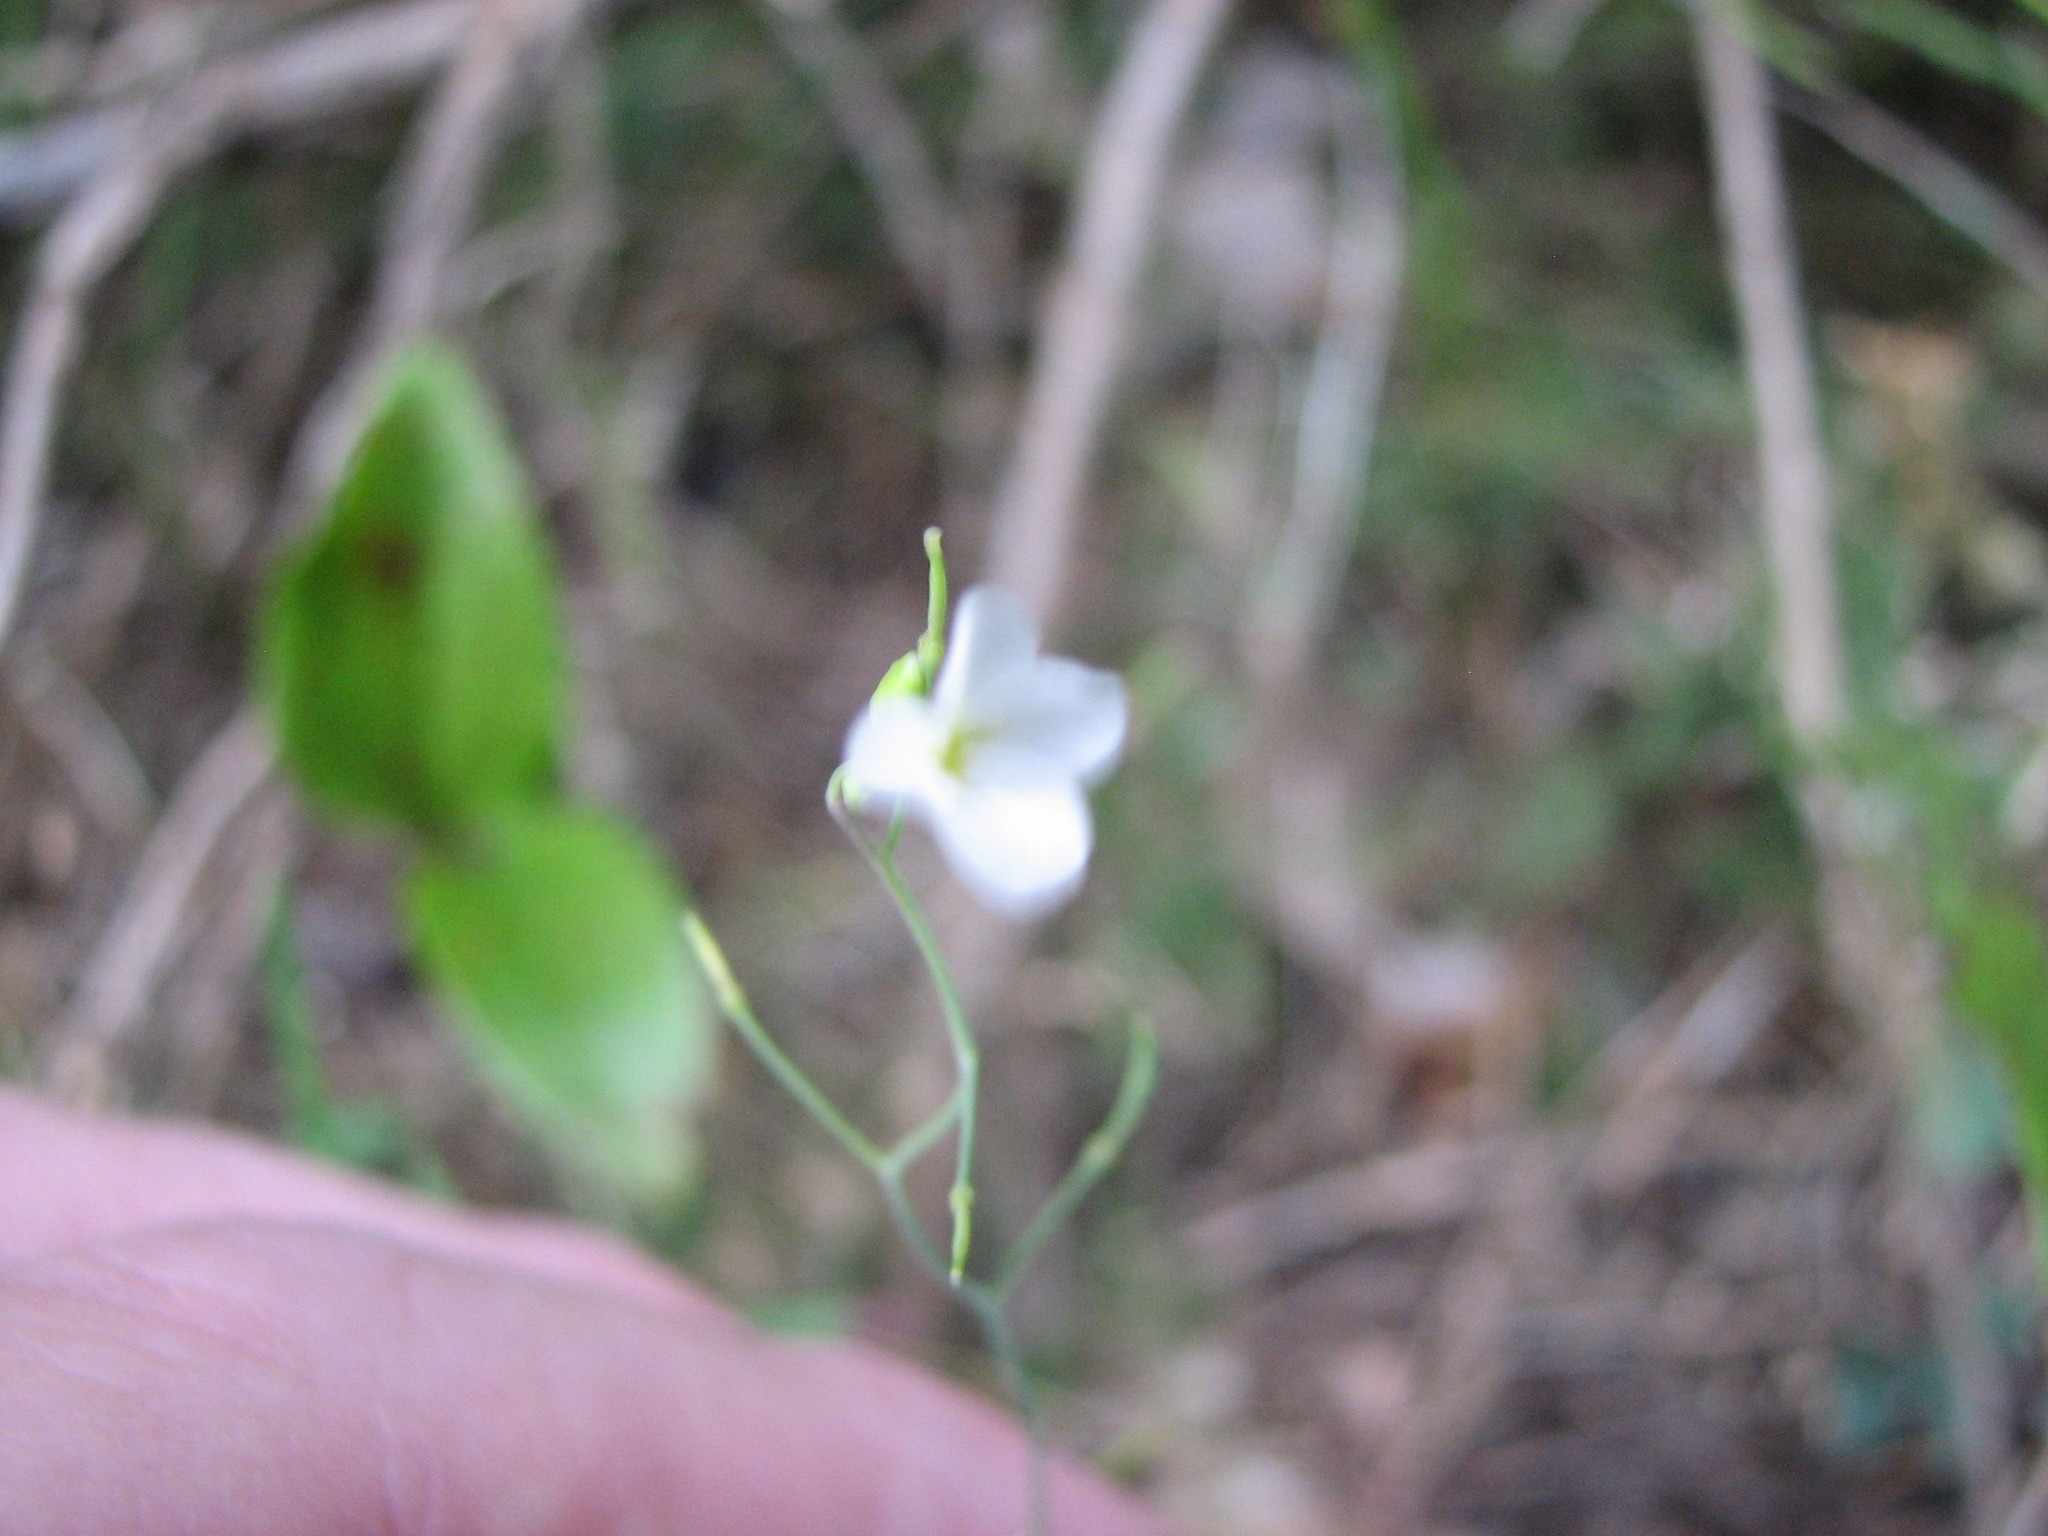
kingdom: Plantae
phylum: Tracheophyta
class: Magnoliopsida
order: Brassicales
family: Brassicaceae
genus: Arabidopsis
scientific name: Arabidopsis lyrata
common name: Lyrate rockcress
